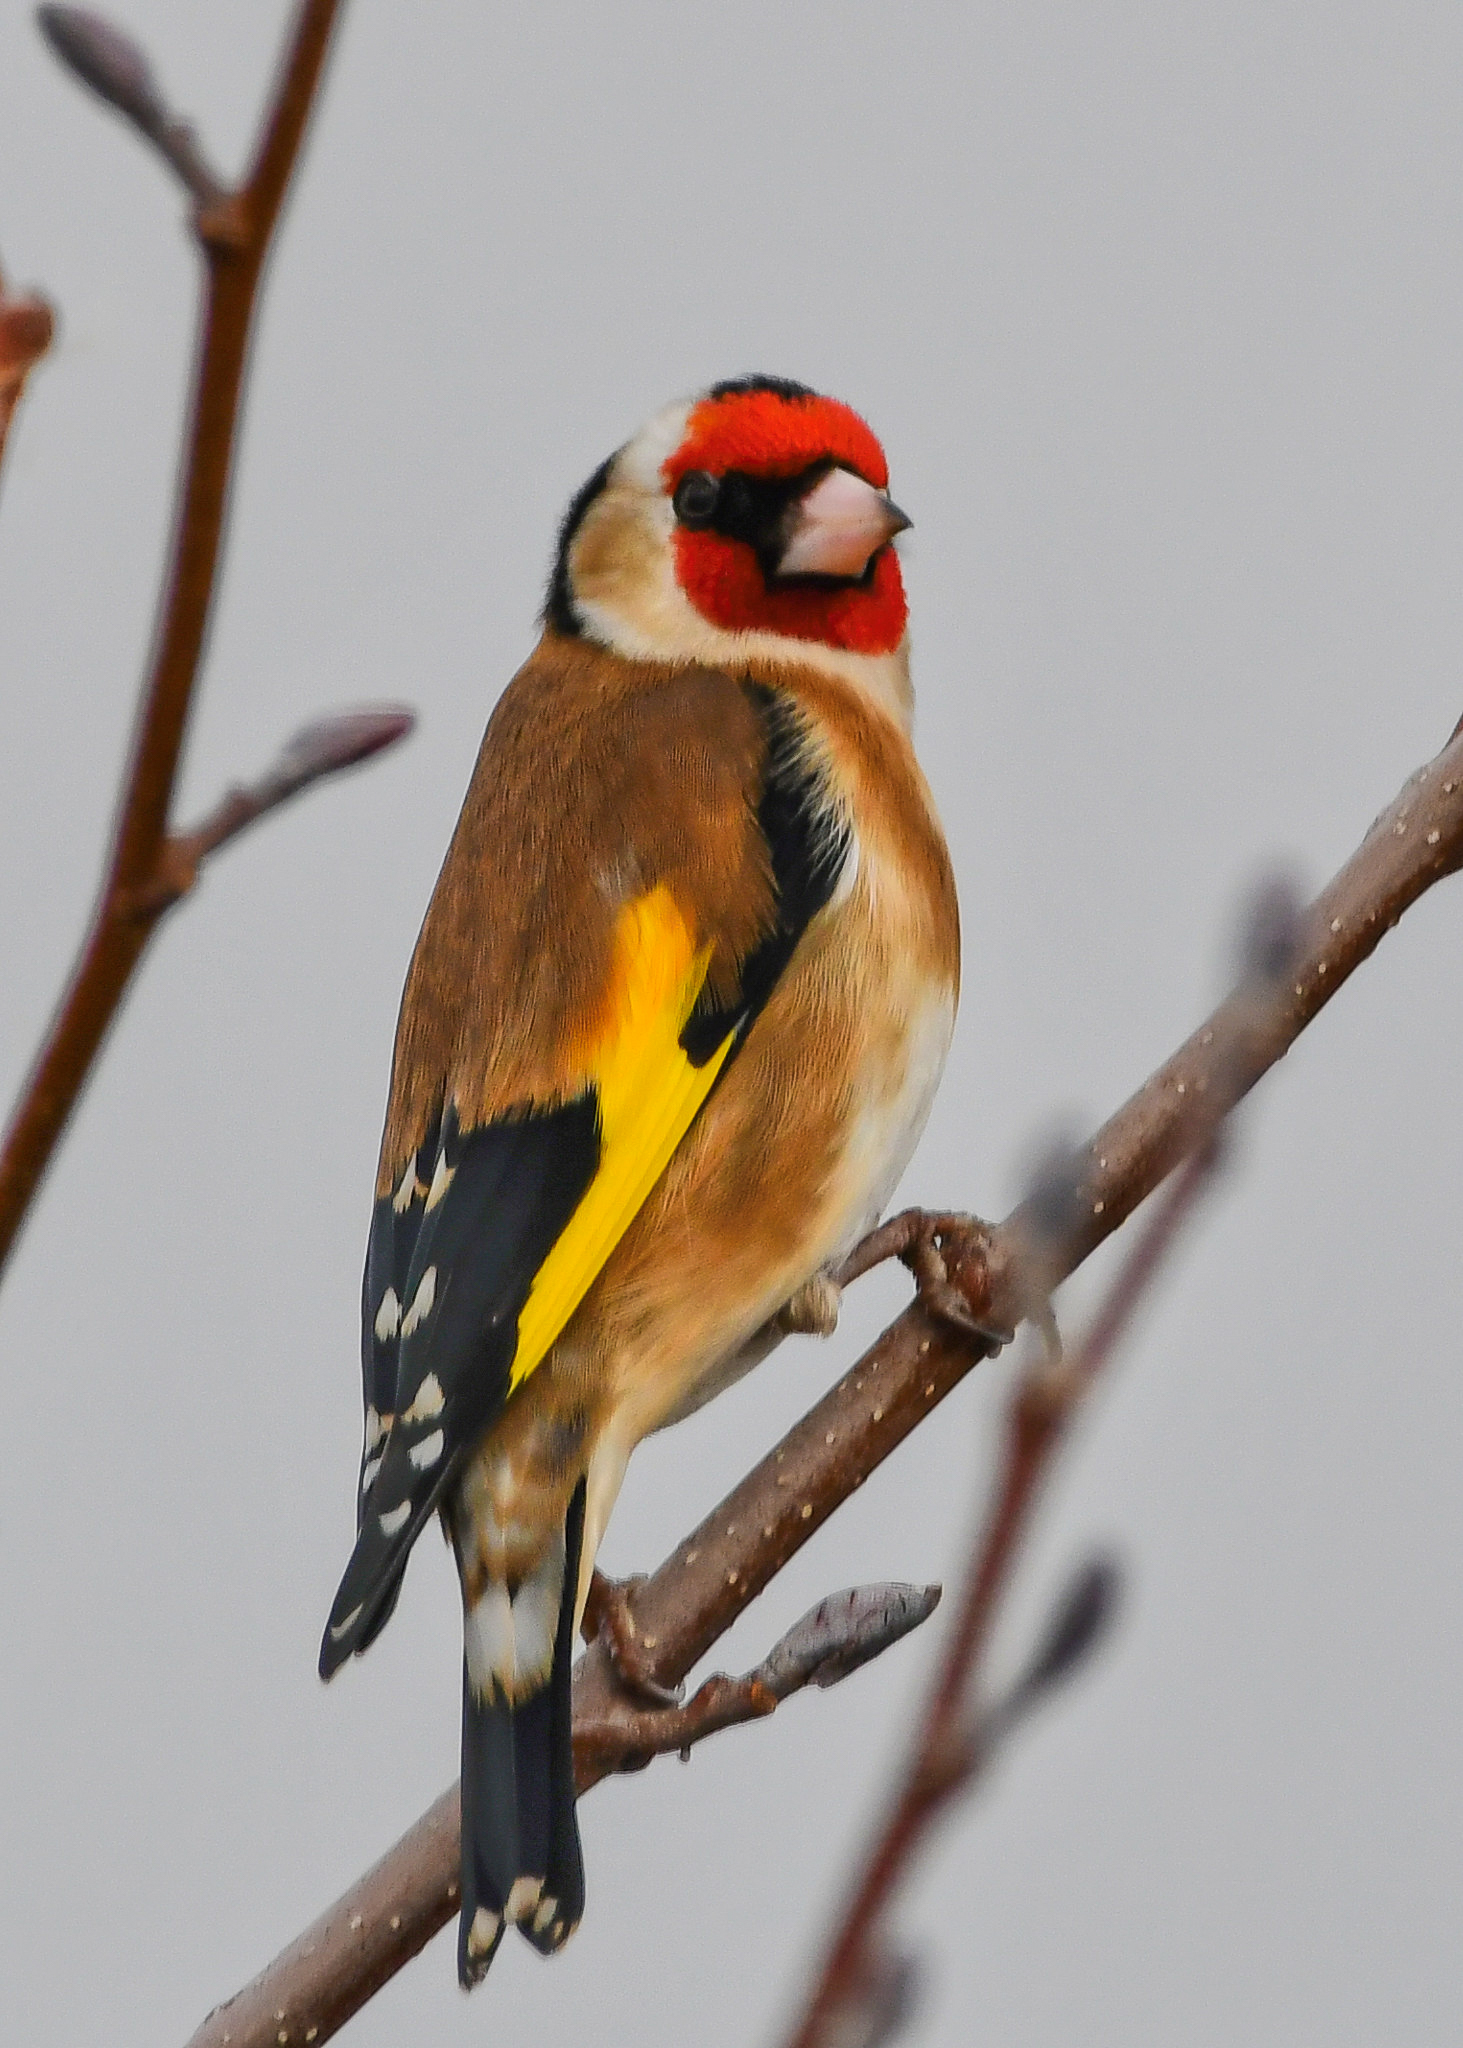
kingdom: Animalia
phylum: Chordata
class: Aves
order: Passeriformes
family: Fringillidae
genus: Carduelis
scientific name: Carduelis carduelis
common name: European goldfinch
